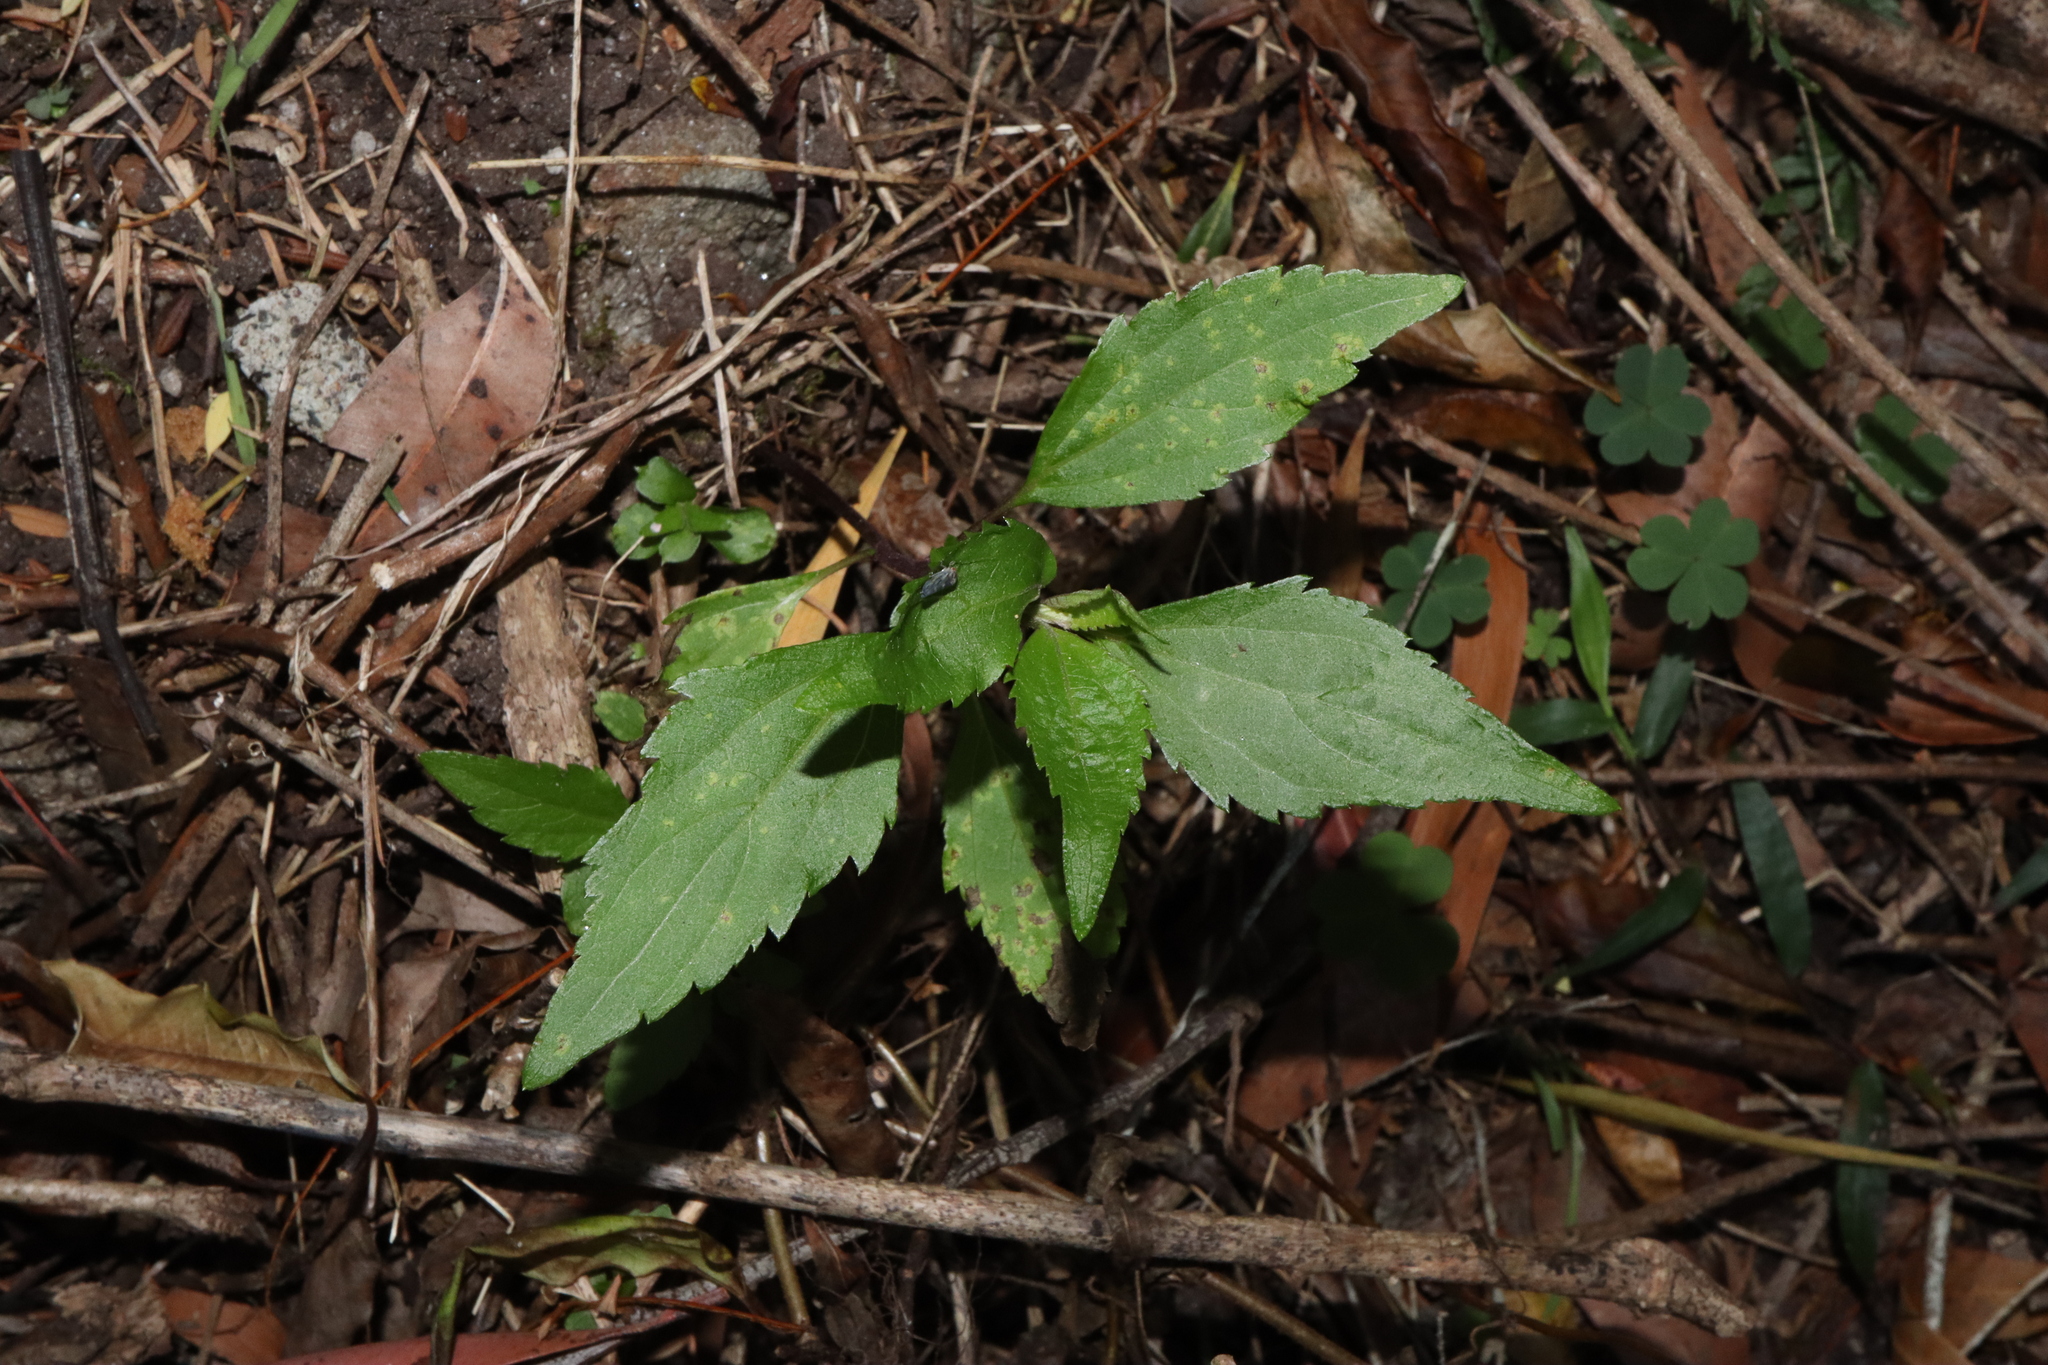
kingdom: Plantae
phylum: Tracheophyta
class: Magnoliopsida
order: Asterales
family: Asteraceae
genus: Ageratina
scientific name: Ageratina riparia
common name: Creeping croftonweed
